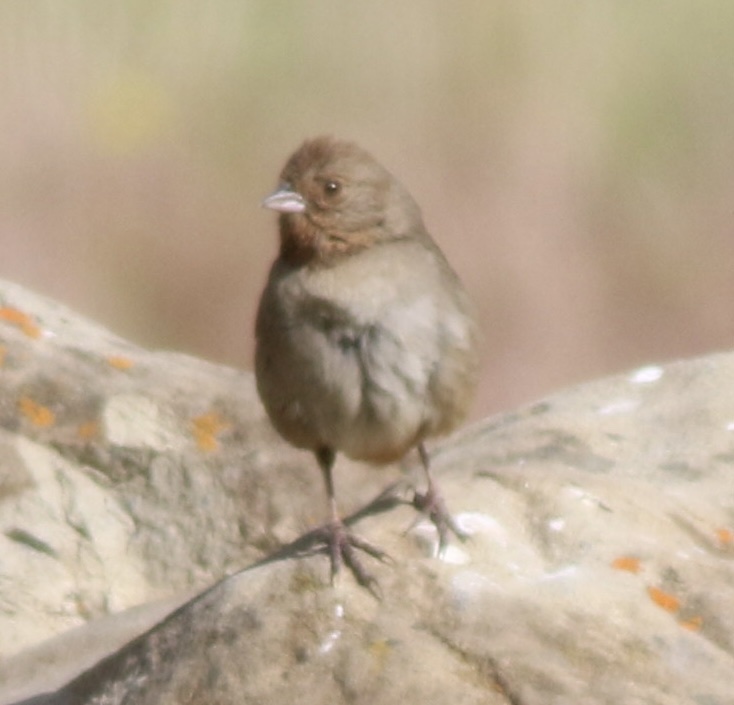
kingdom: Animalia
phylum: Chordata
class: Aves
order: Passeriformes
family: Passerellidae
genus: Melozone
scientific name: Melozone crissalis
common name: California towhee
